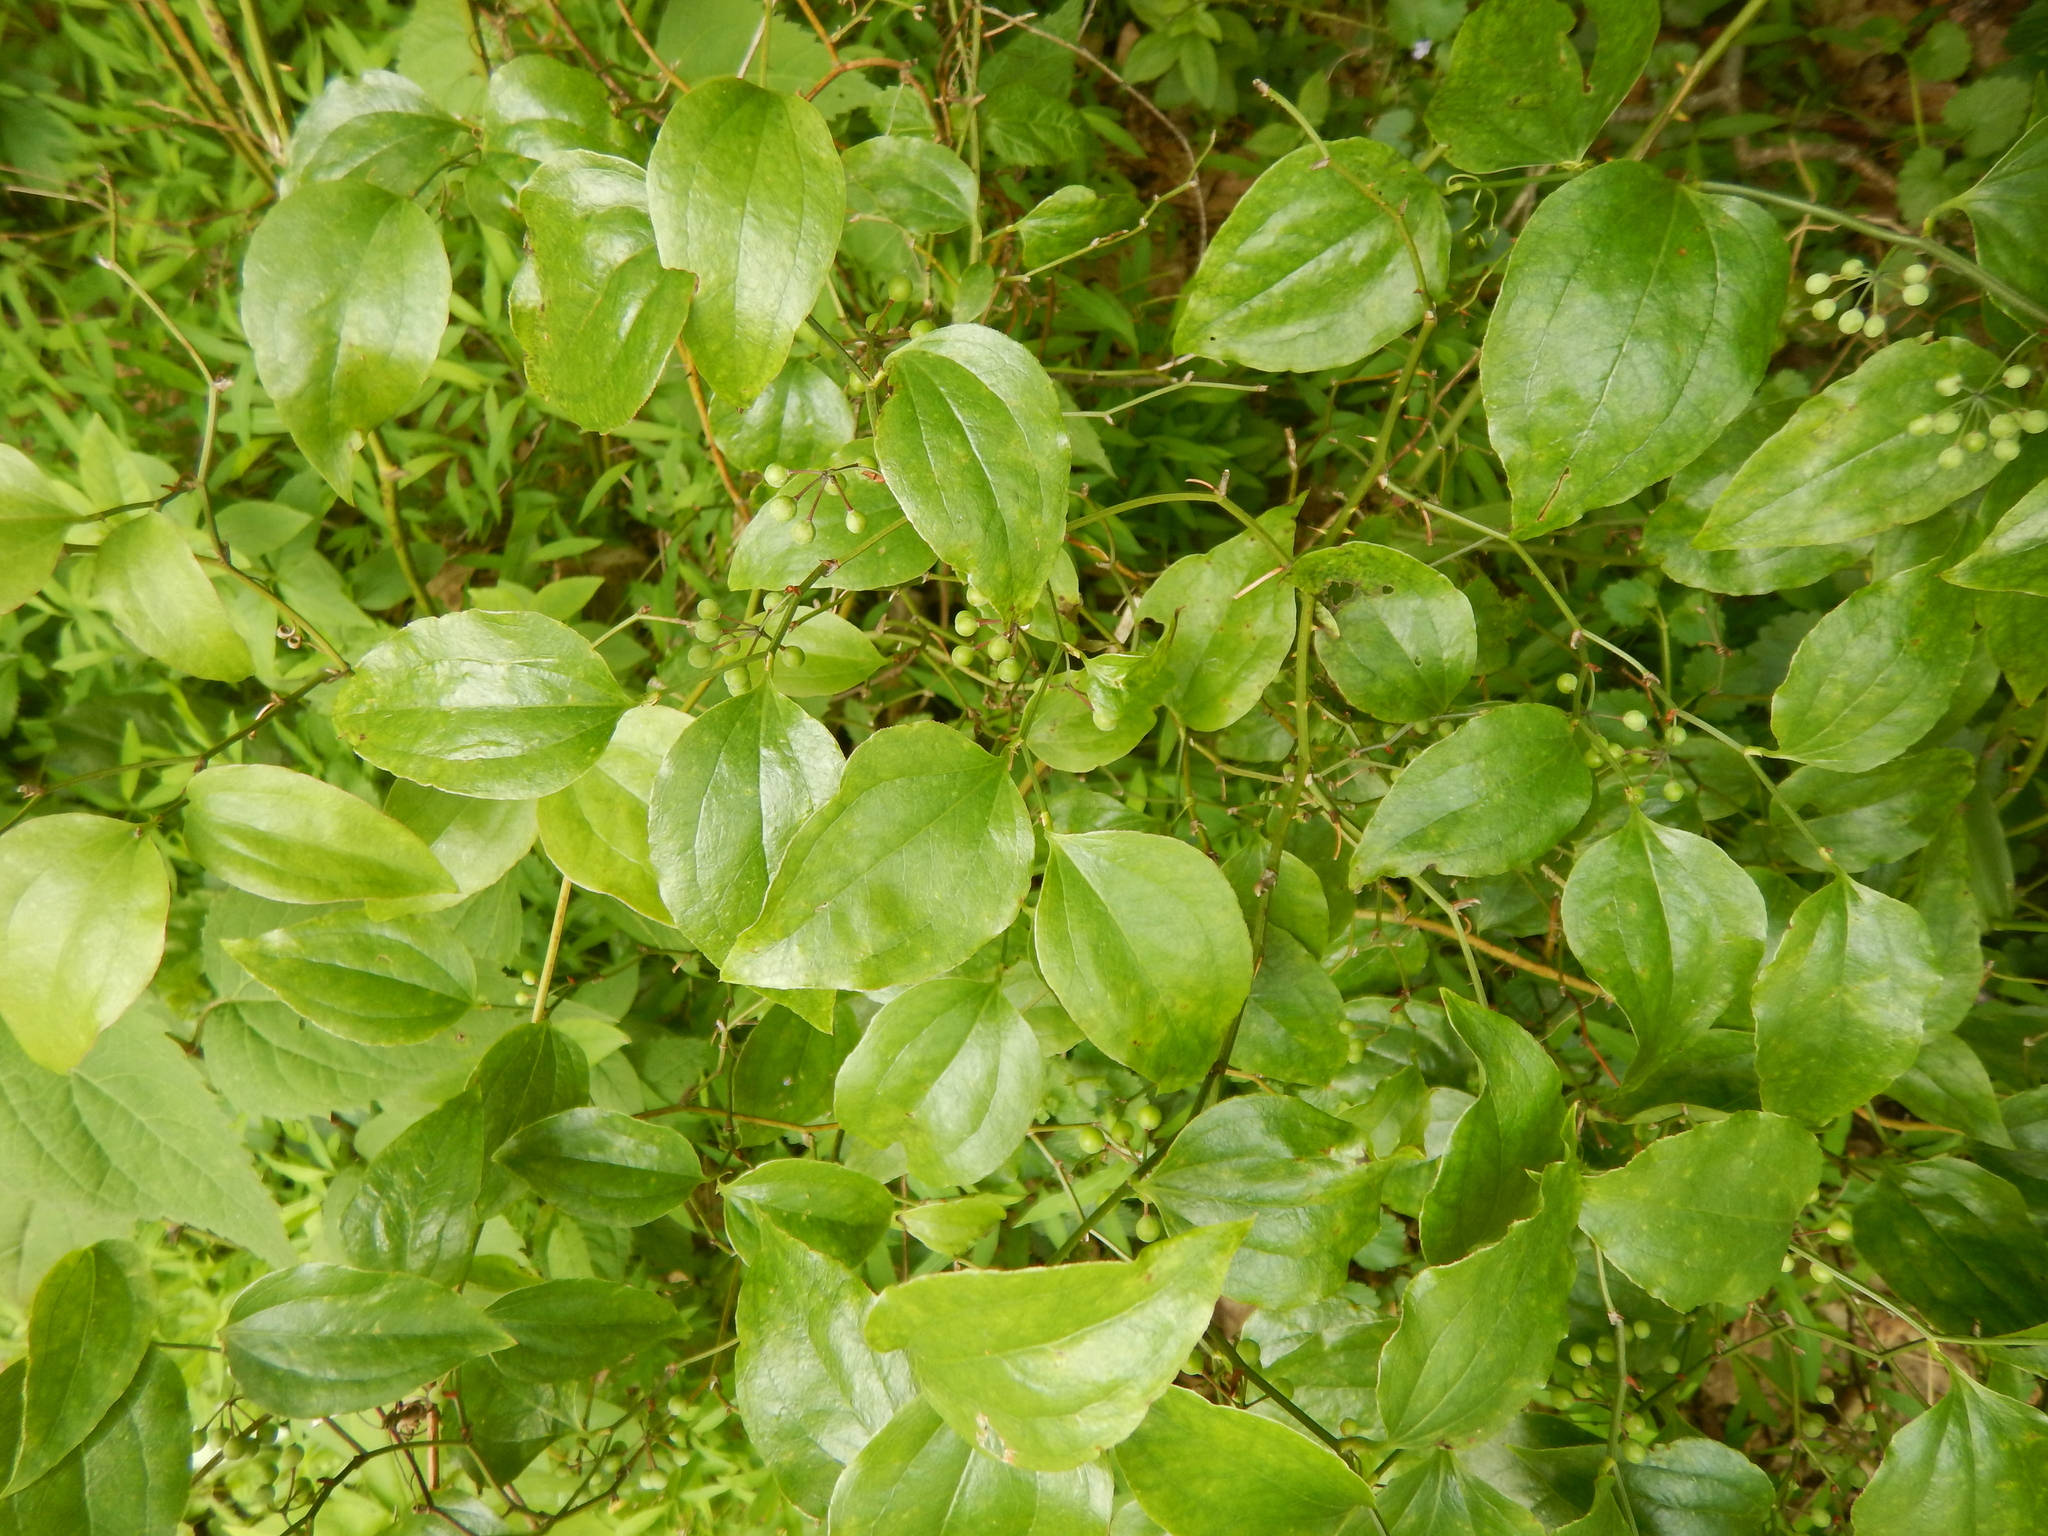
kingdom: Plantae
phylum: Tracheophyta
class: Liliopsida
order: Liliales
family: Smilacaceae
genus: Smilax
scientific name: Smilax rotundifolia
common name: Bullbriar
